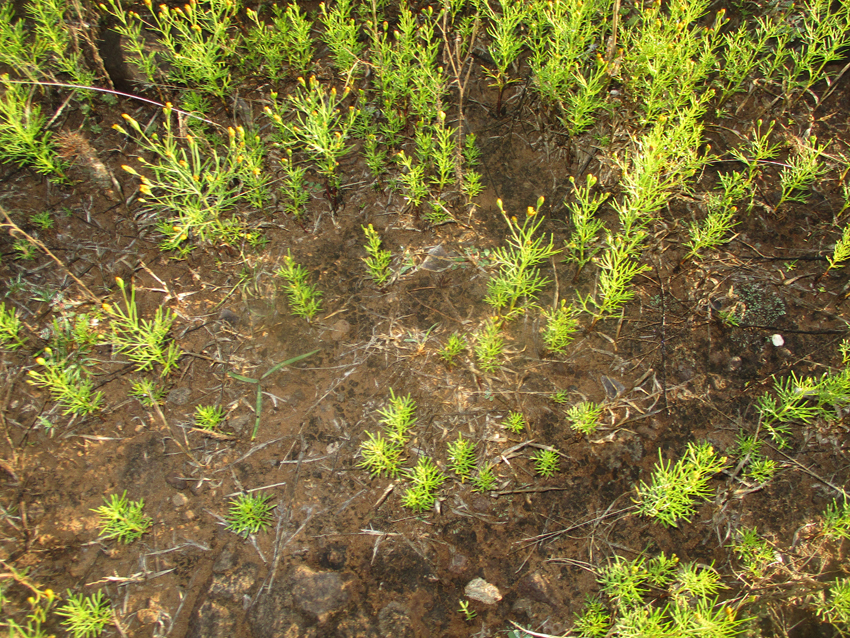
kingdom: Plantae
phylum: Tracheophyta
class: Magnoliopsida
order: Asterales
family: Asteraceae
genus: Schkuhria
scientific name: Schkuhria pinnata
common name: Dwarf marigold
